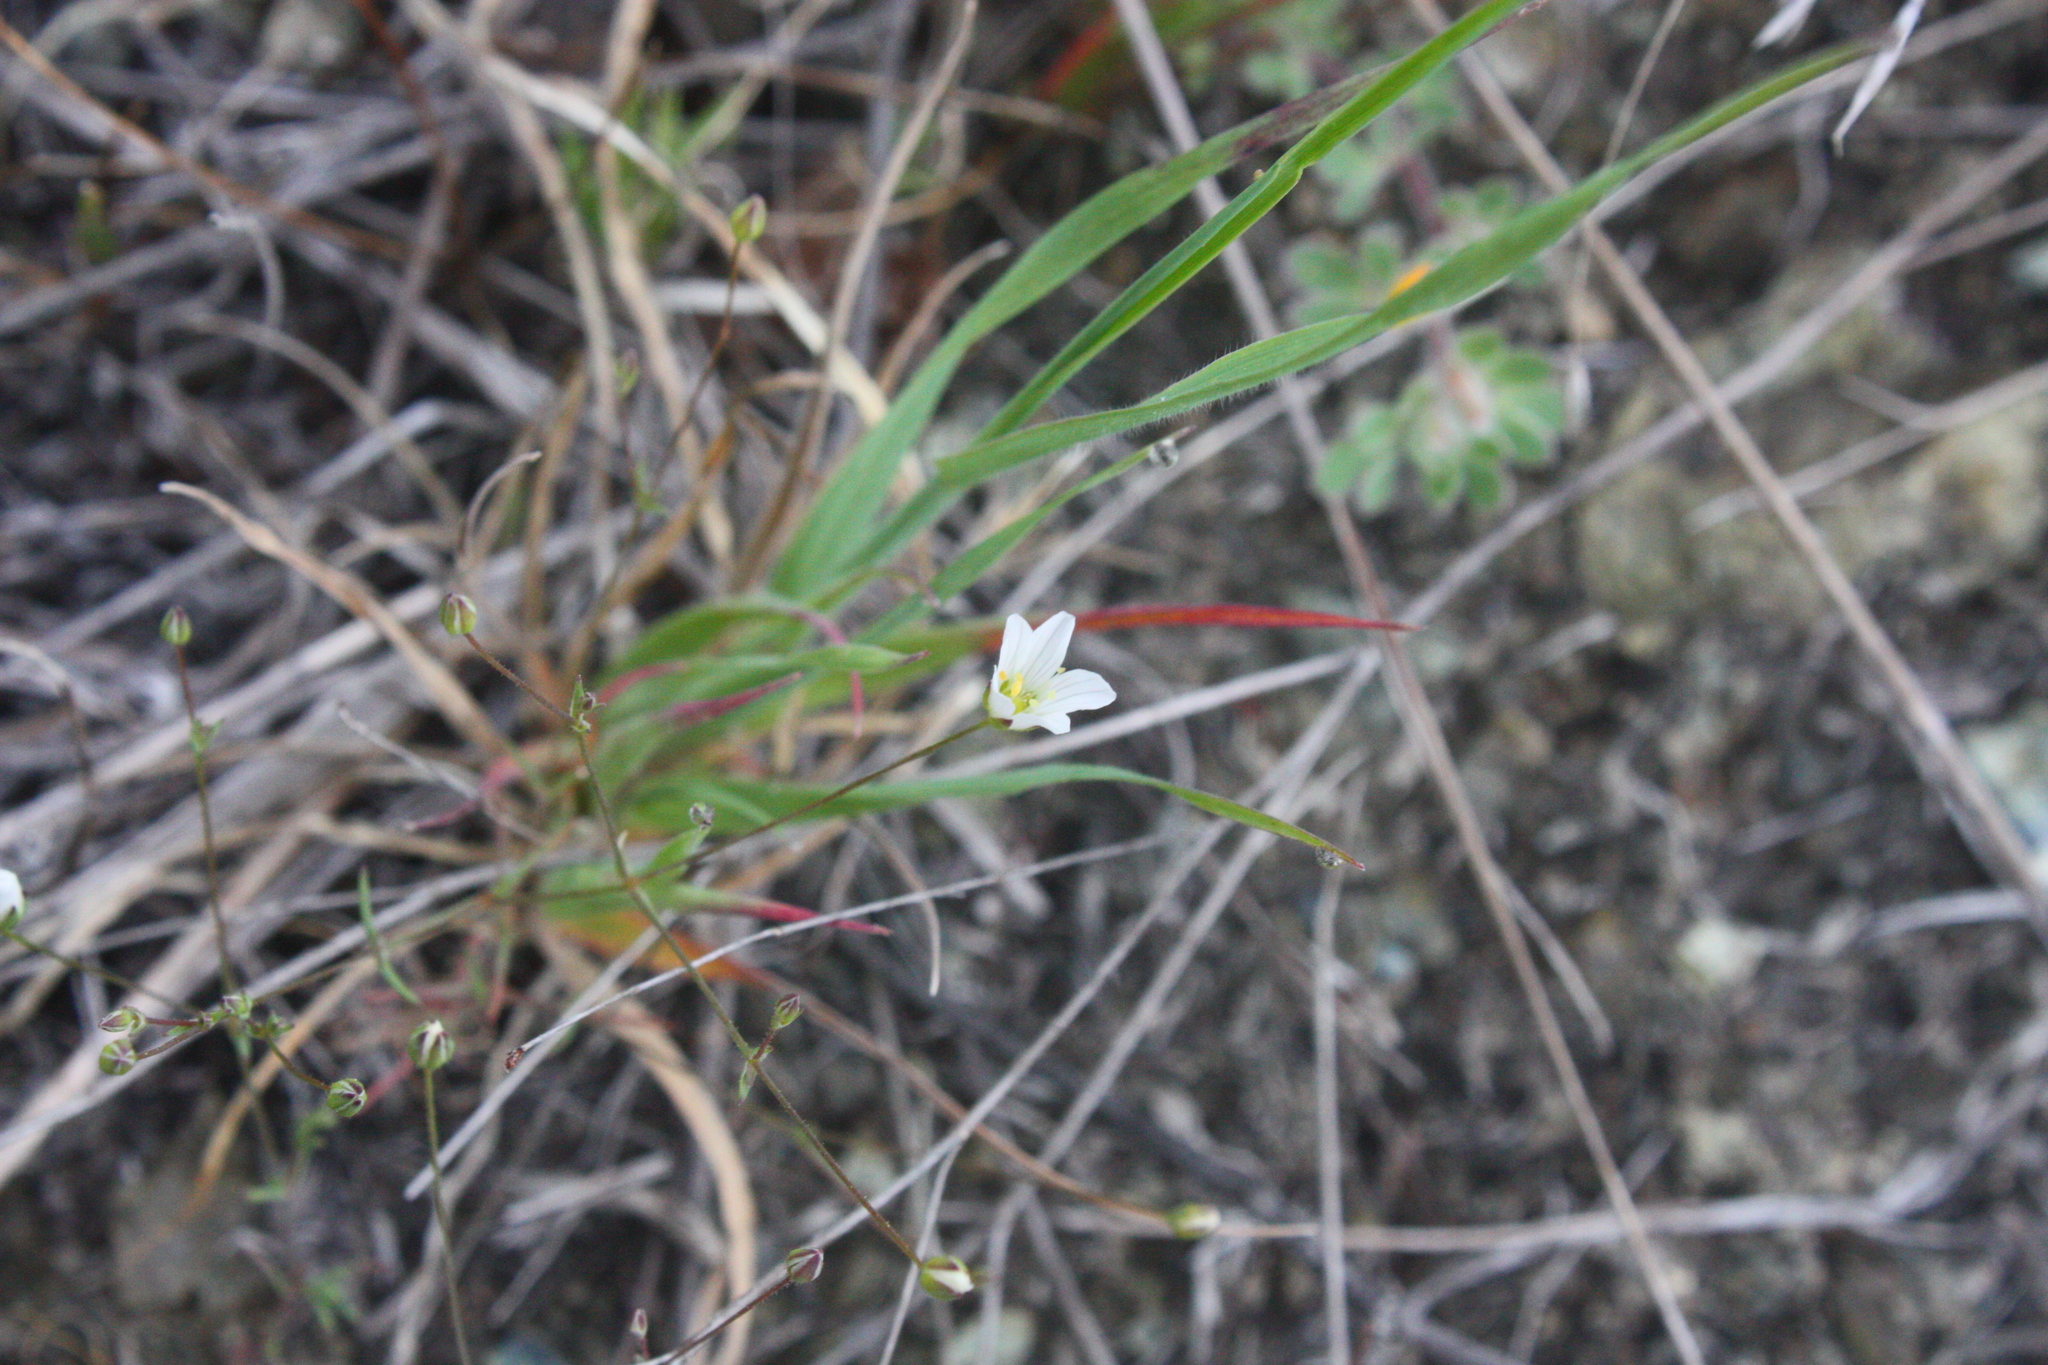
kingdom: Plantae
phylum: Tracheophyta
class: Magnoliopsida
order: Caryophyllales
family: Caryophyllaceae
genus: Sabulina
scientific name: Sabulina douglasii
